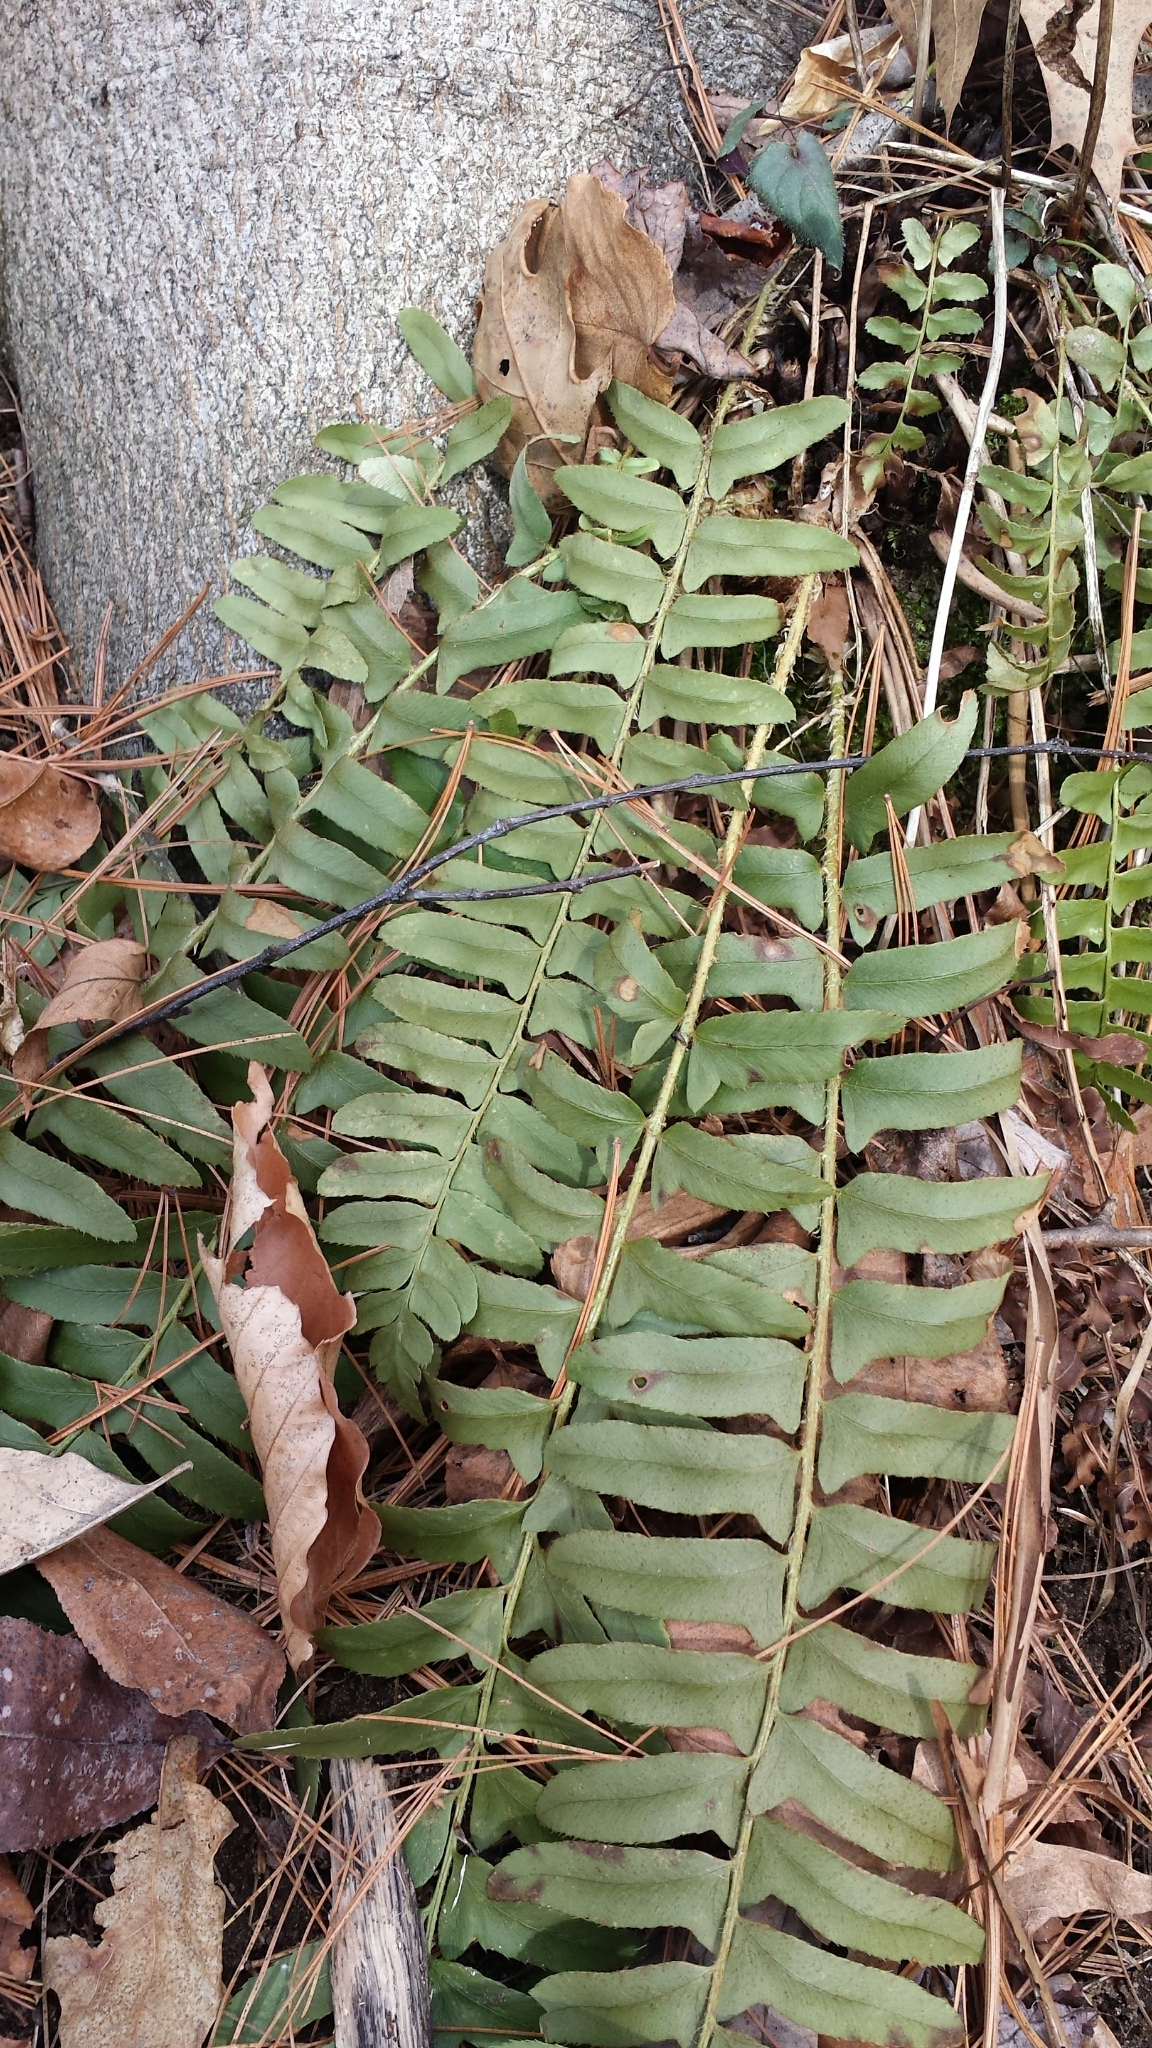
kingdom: Plantae
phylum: Tracheophyta
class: Polypodiopsida
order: Polypodiales
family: Dryopteridaceae
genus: Polystichum
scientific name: Polystichum acrostichoides
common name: Christmas fern
